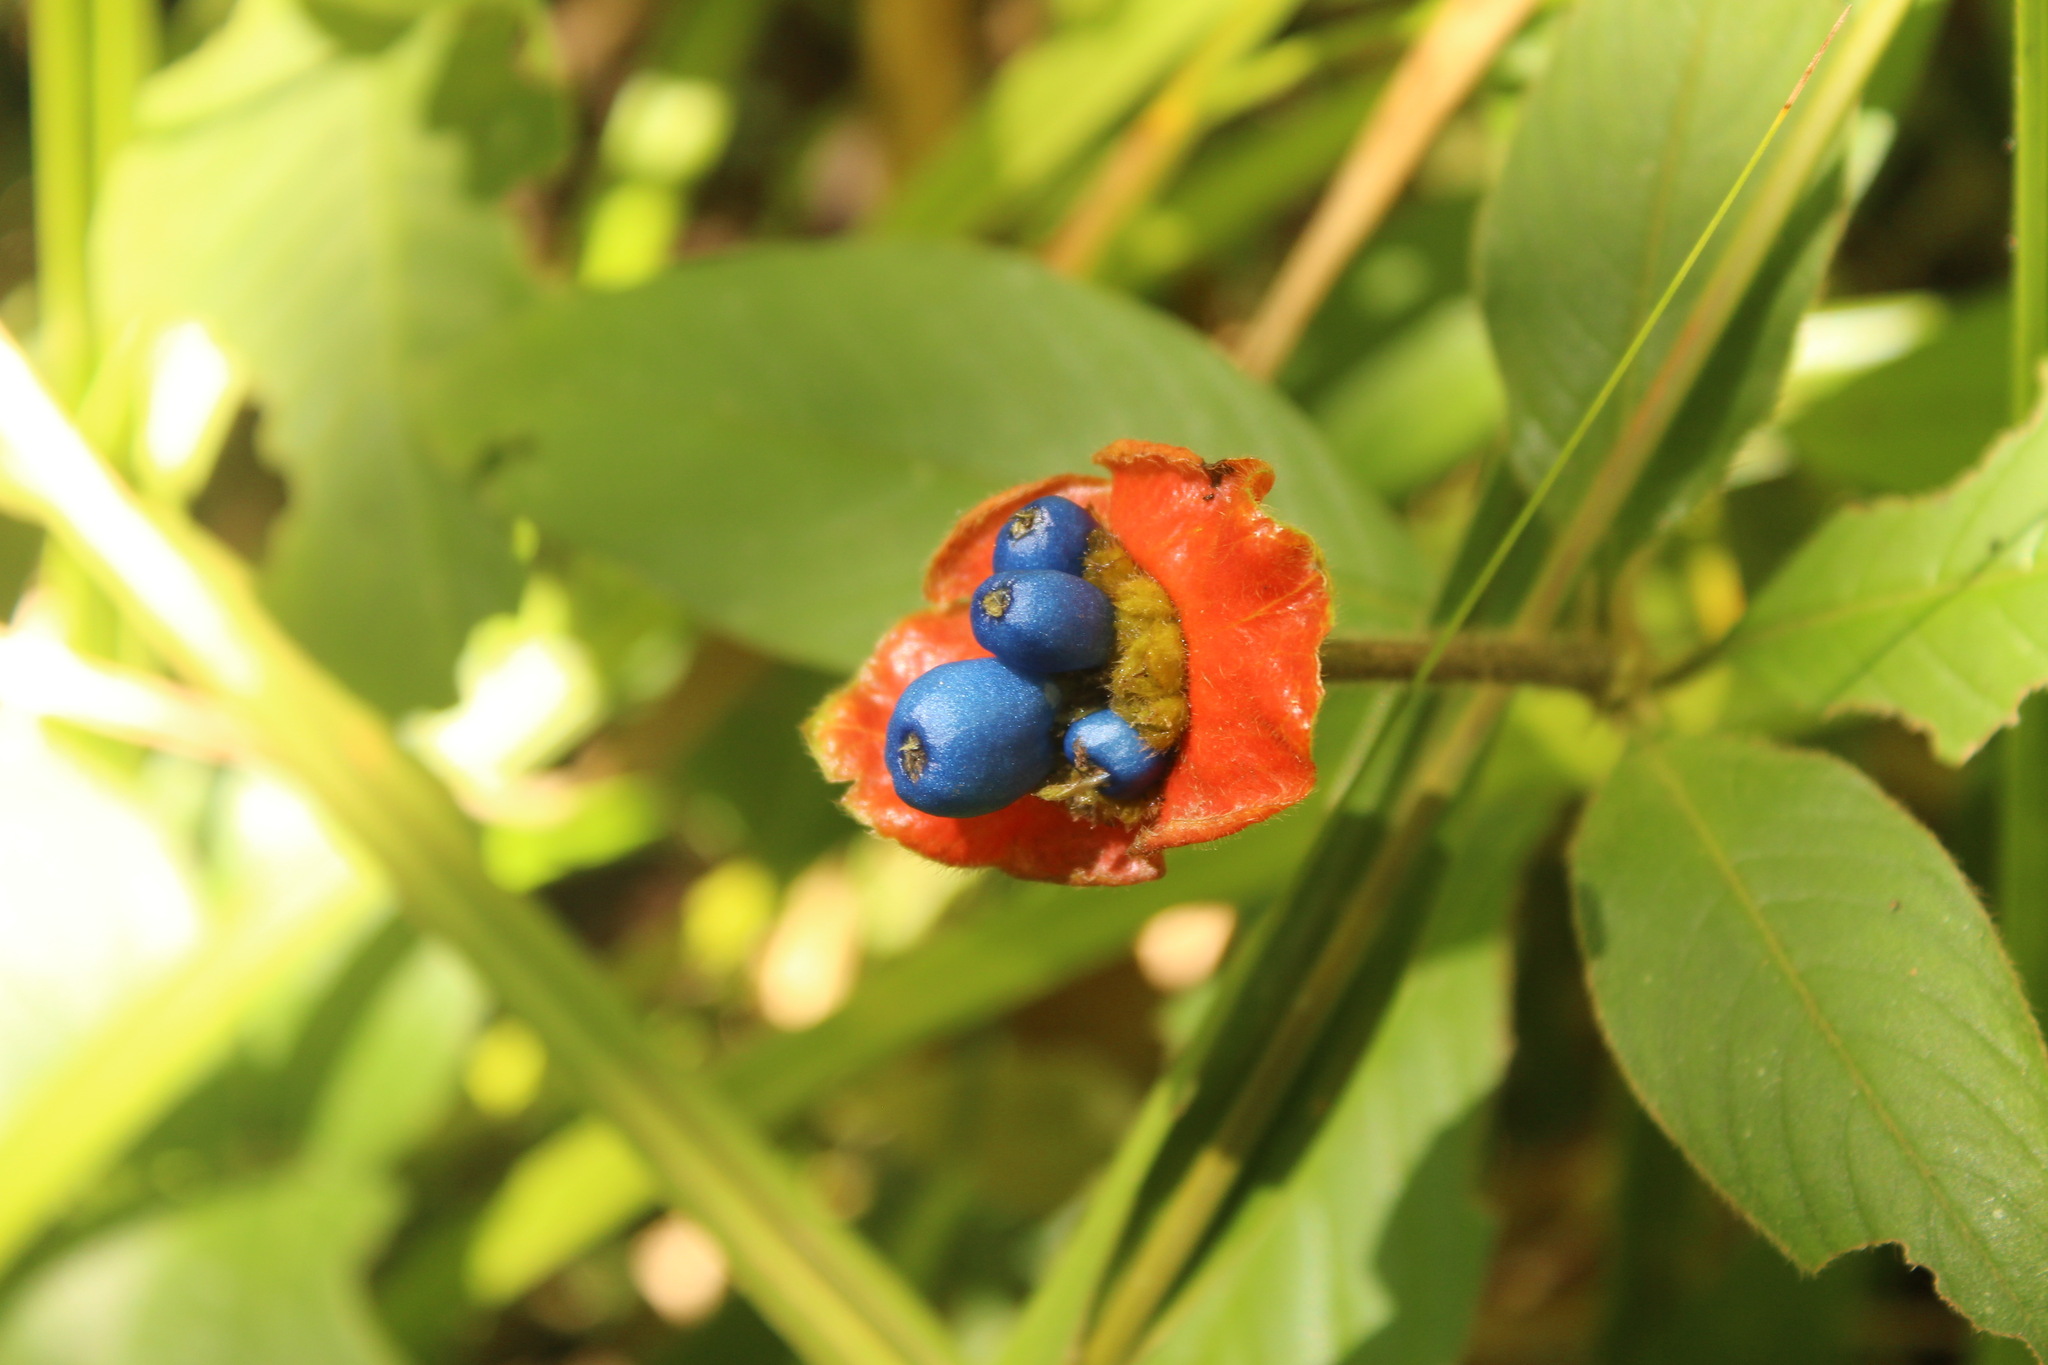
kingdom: Plantae
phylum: Tracheophyta
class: Magnoliopsida
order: Gentianales
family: Rubiaceae
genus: Palicourea
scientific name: Palicourea tomentosa
